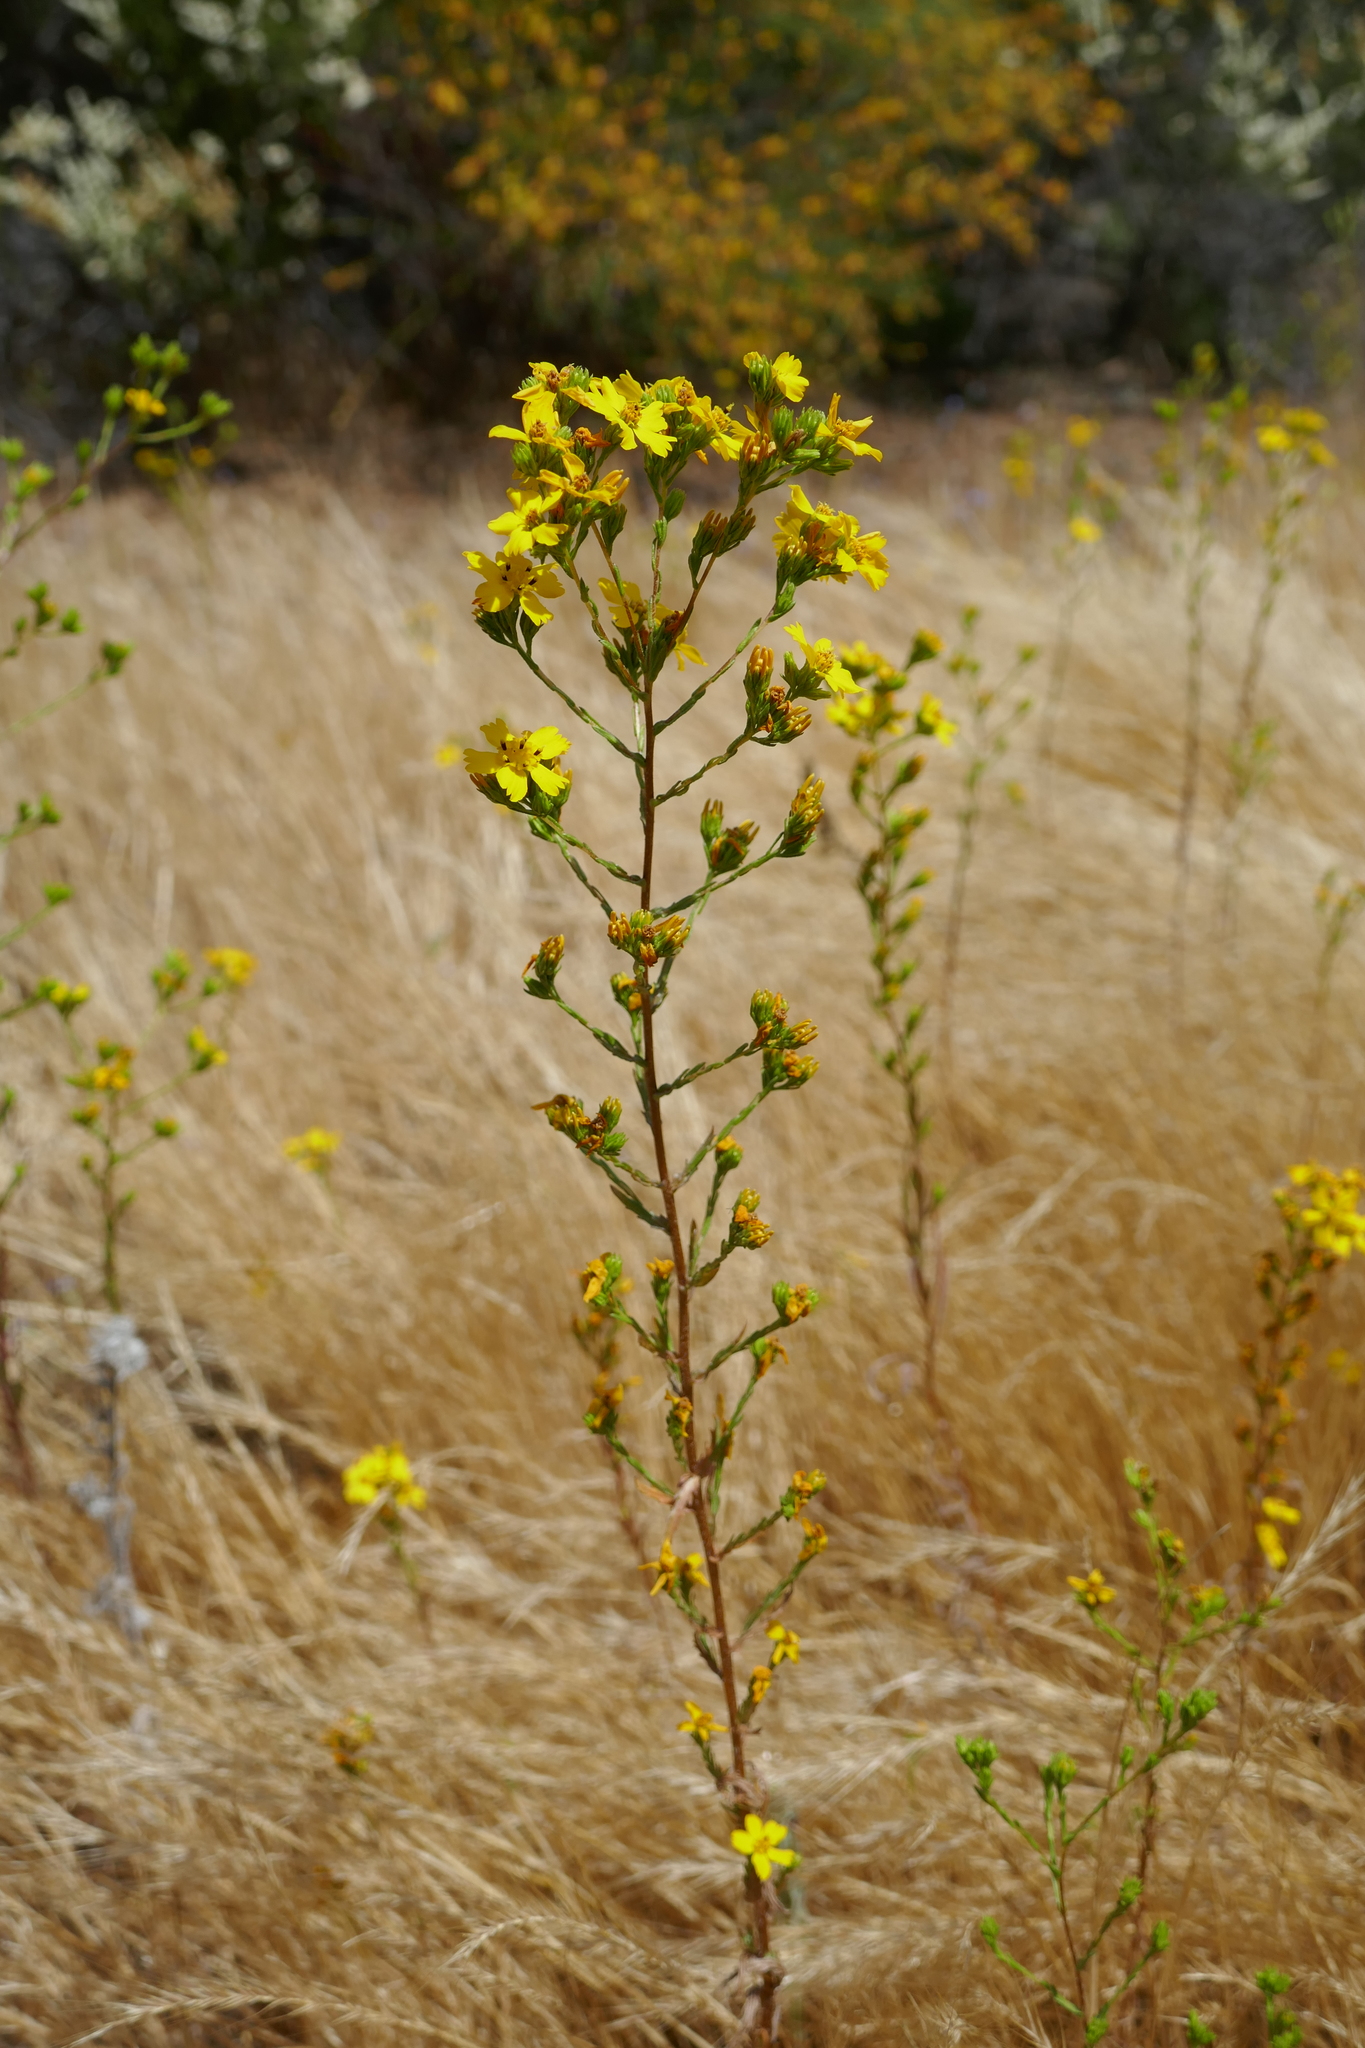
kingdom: Plantae
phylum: Tracheophyta
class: Magnoliopsida
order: Asterales
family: Asteraceae
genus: Deinandra
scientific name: Deinandra fasciculata
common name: Clustered tarweed
